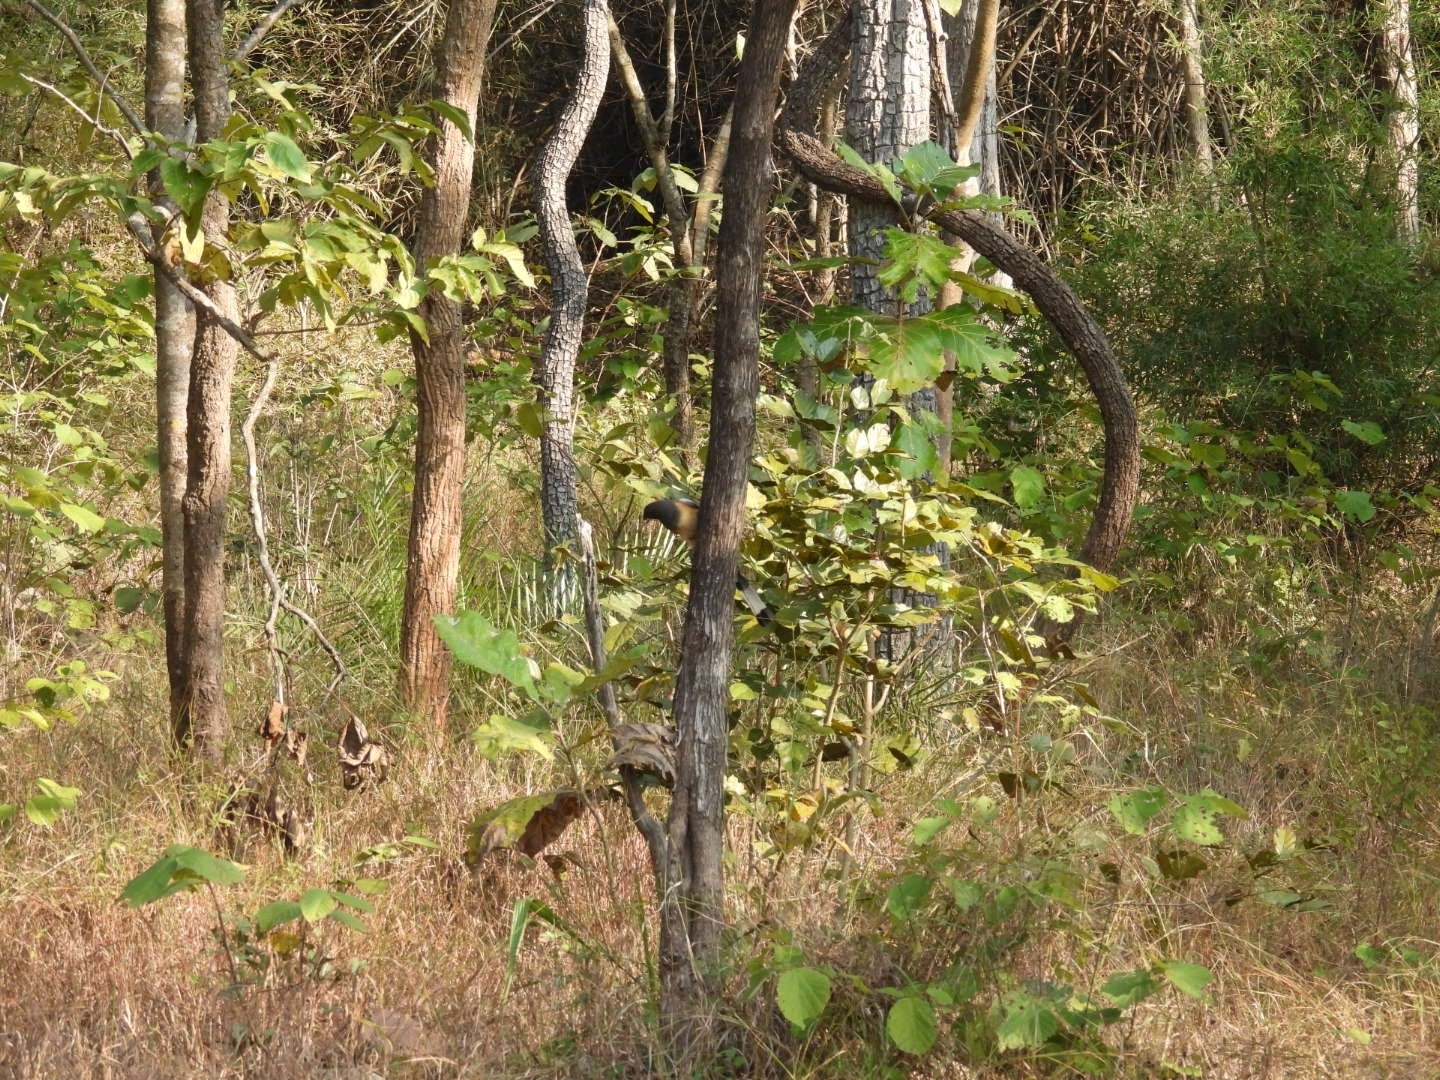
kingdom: Animalia
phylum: Chordata
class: Aves
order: Passeriformes
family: Corvidae
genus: Dendrocitta
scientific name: Dendrocitta vagabunda
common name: Rufous treepie
